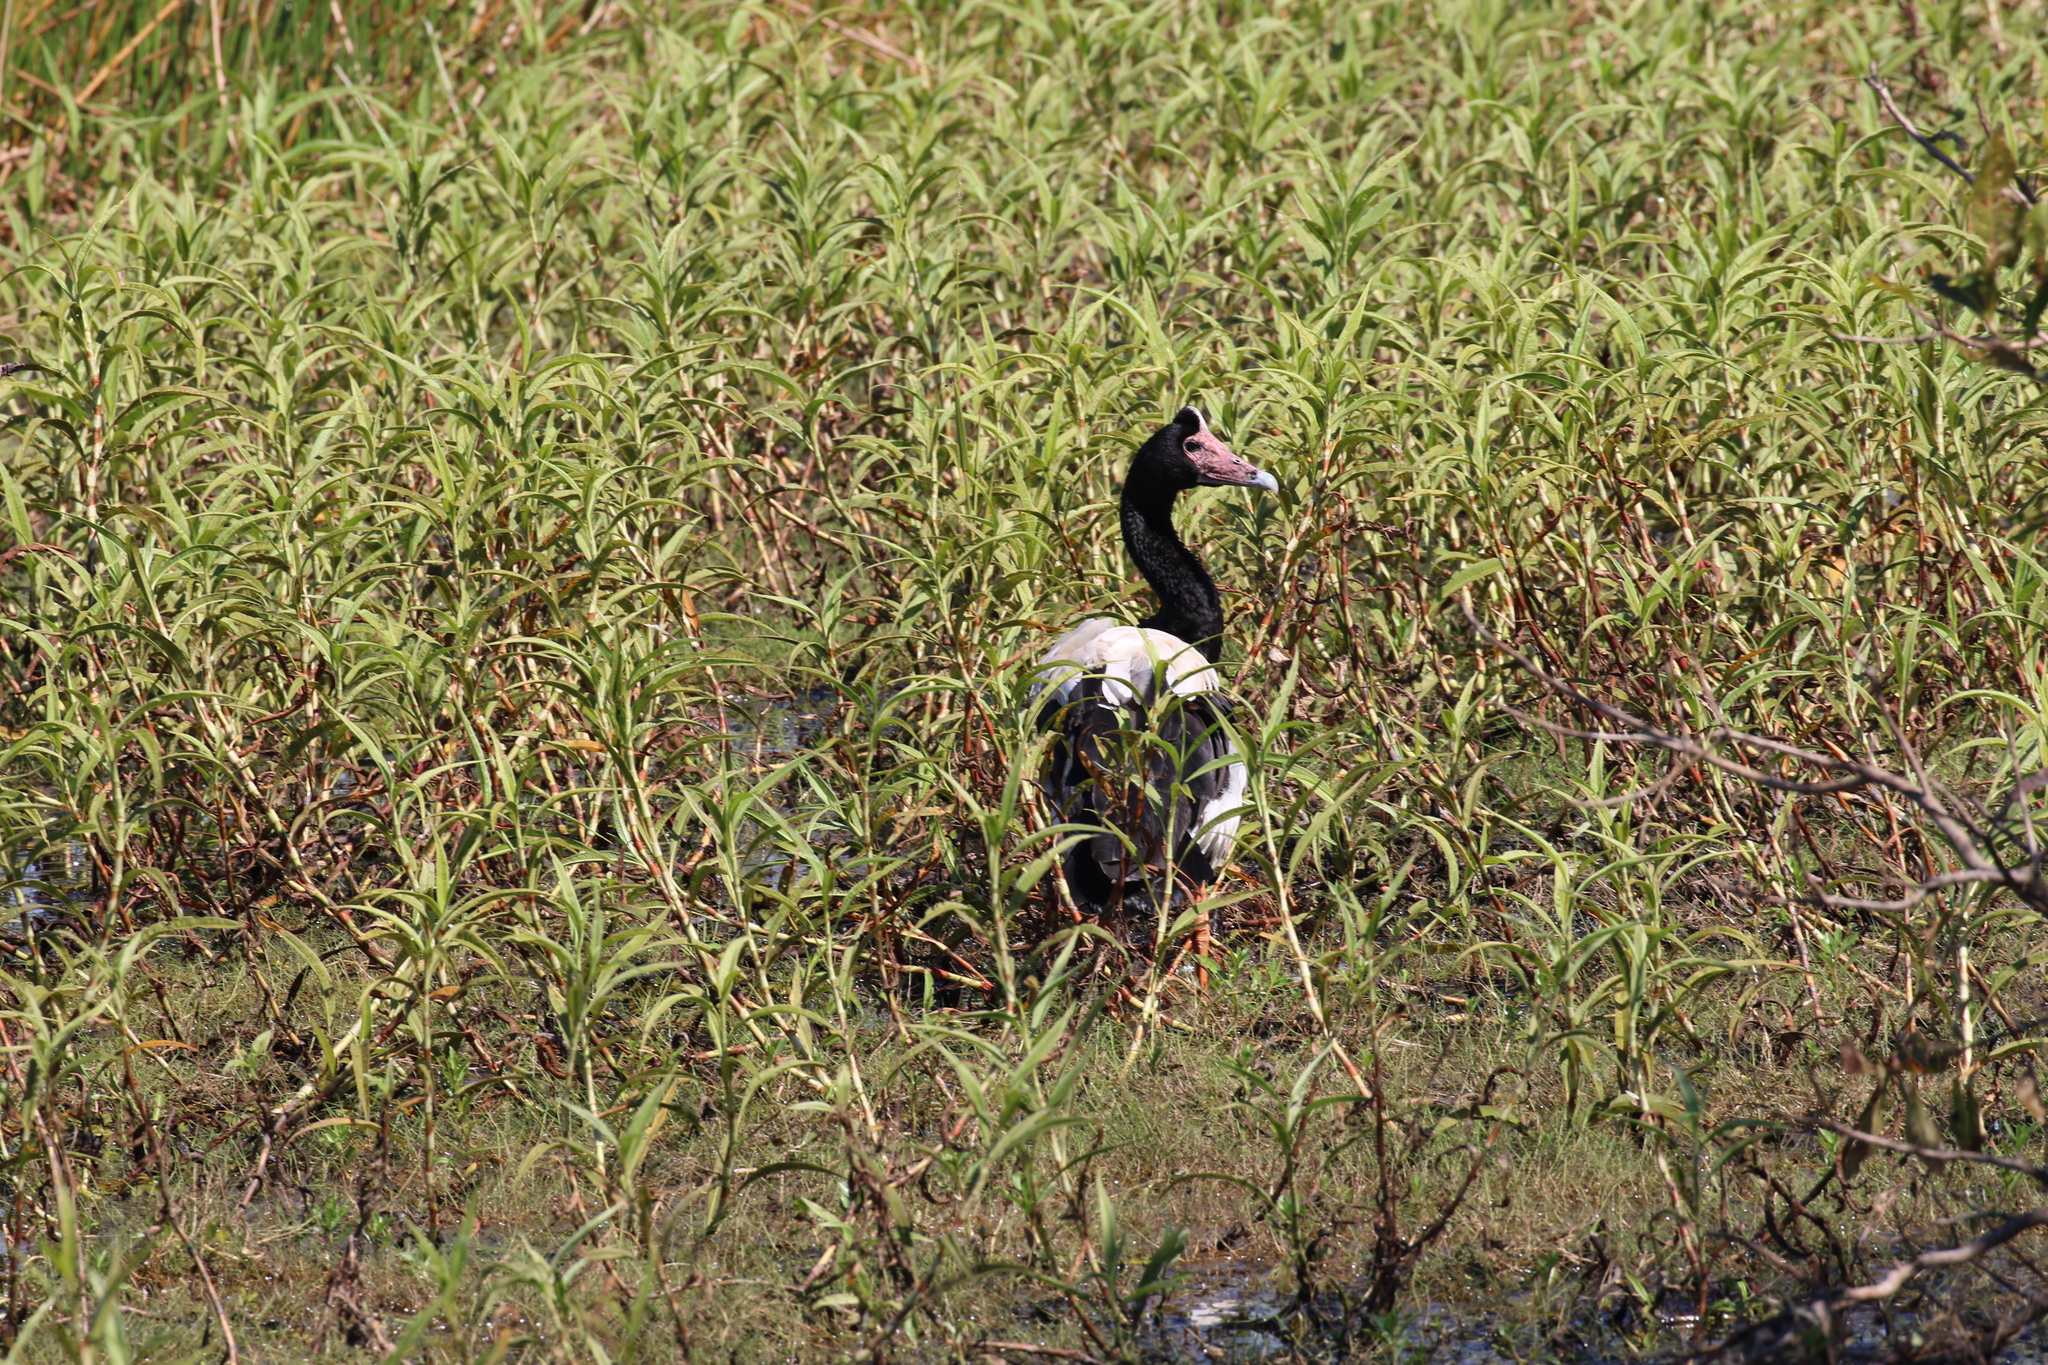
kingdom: Animalia
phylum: Chordata
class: Aves
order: Anseriformes
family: Anseranatidae
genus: Anseranas
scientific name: Anseranas semipalmata
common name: Magpie goose
